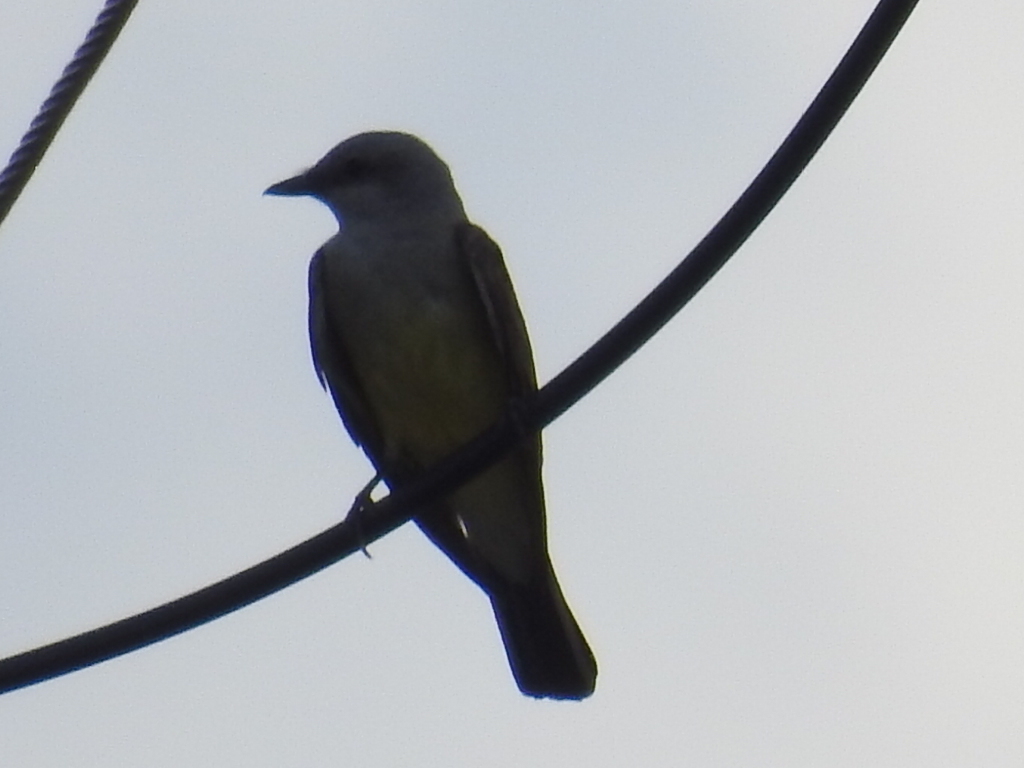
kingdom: Animalia
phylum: Chordata
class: Aves
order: Passeriformes
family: Tyrannidae
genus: Tyrannus
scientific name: Tyrannus verticalis
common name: Western kingbird
